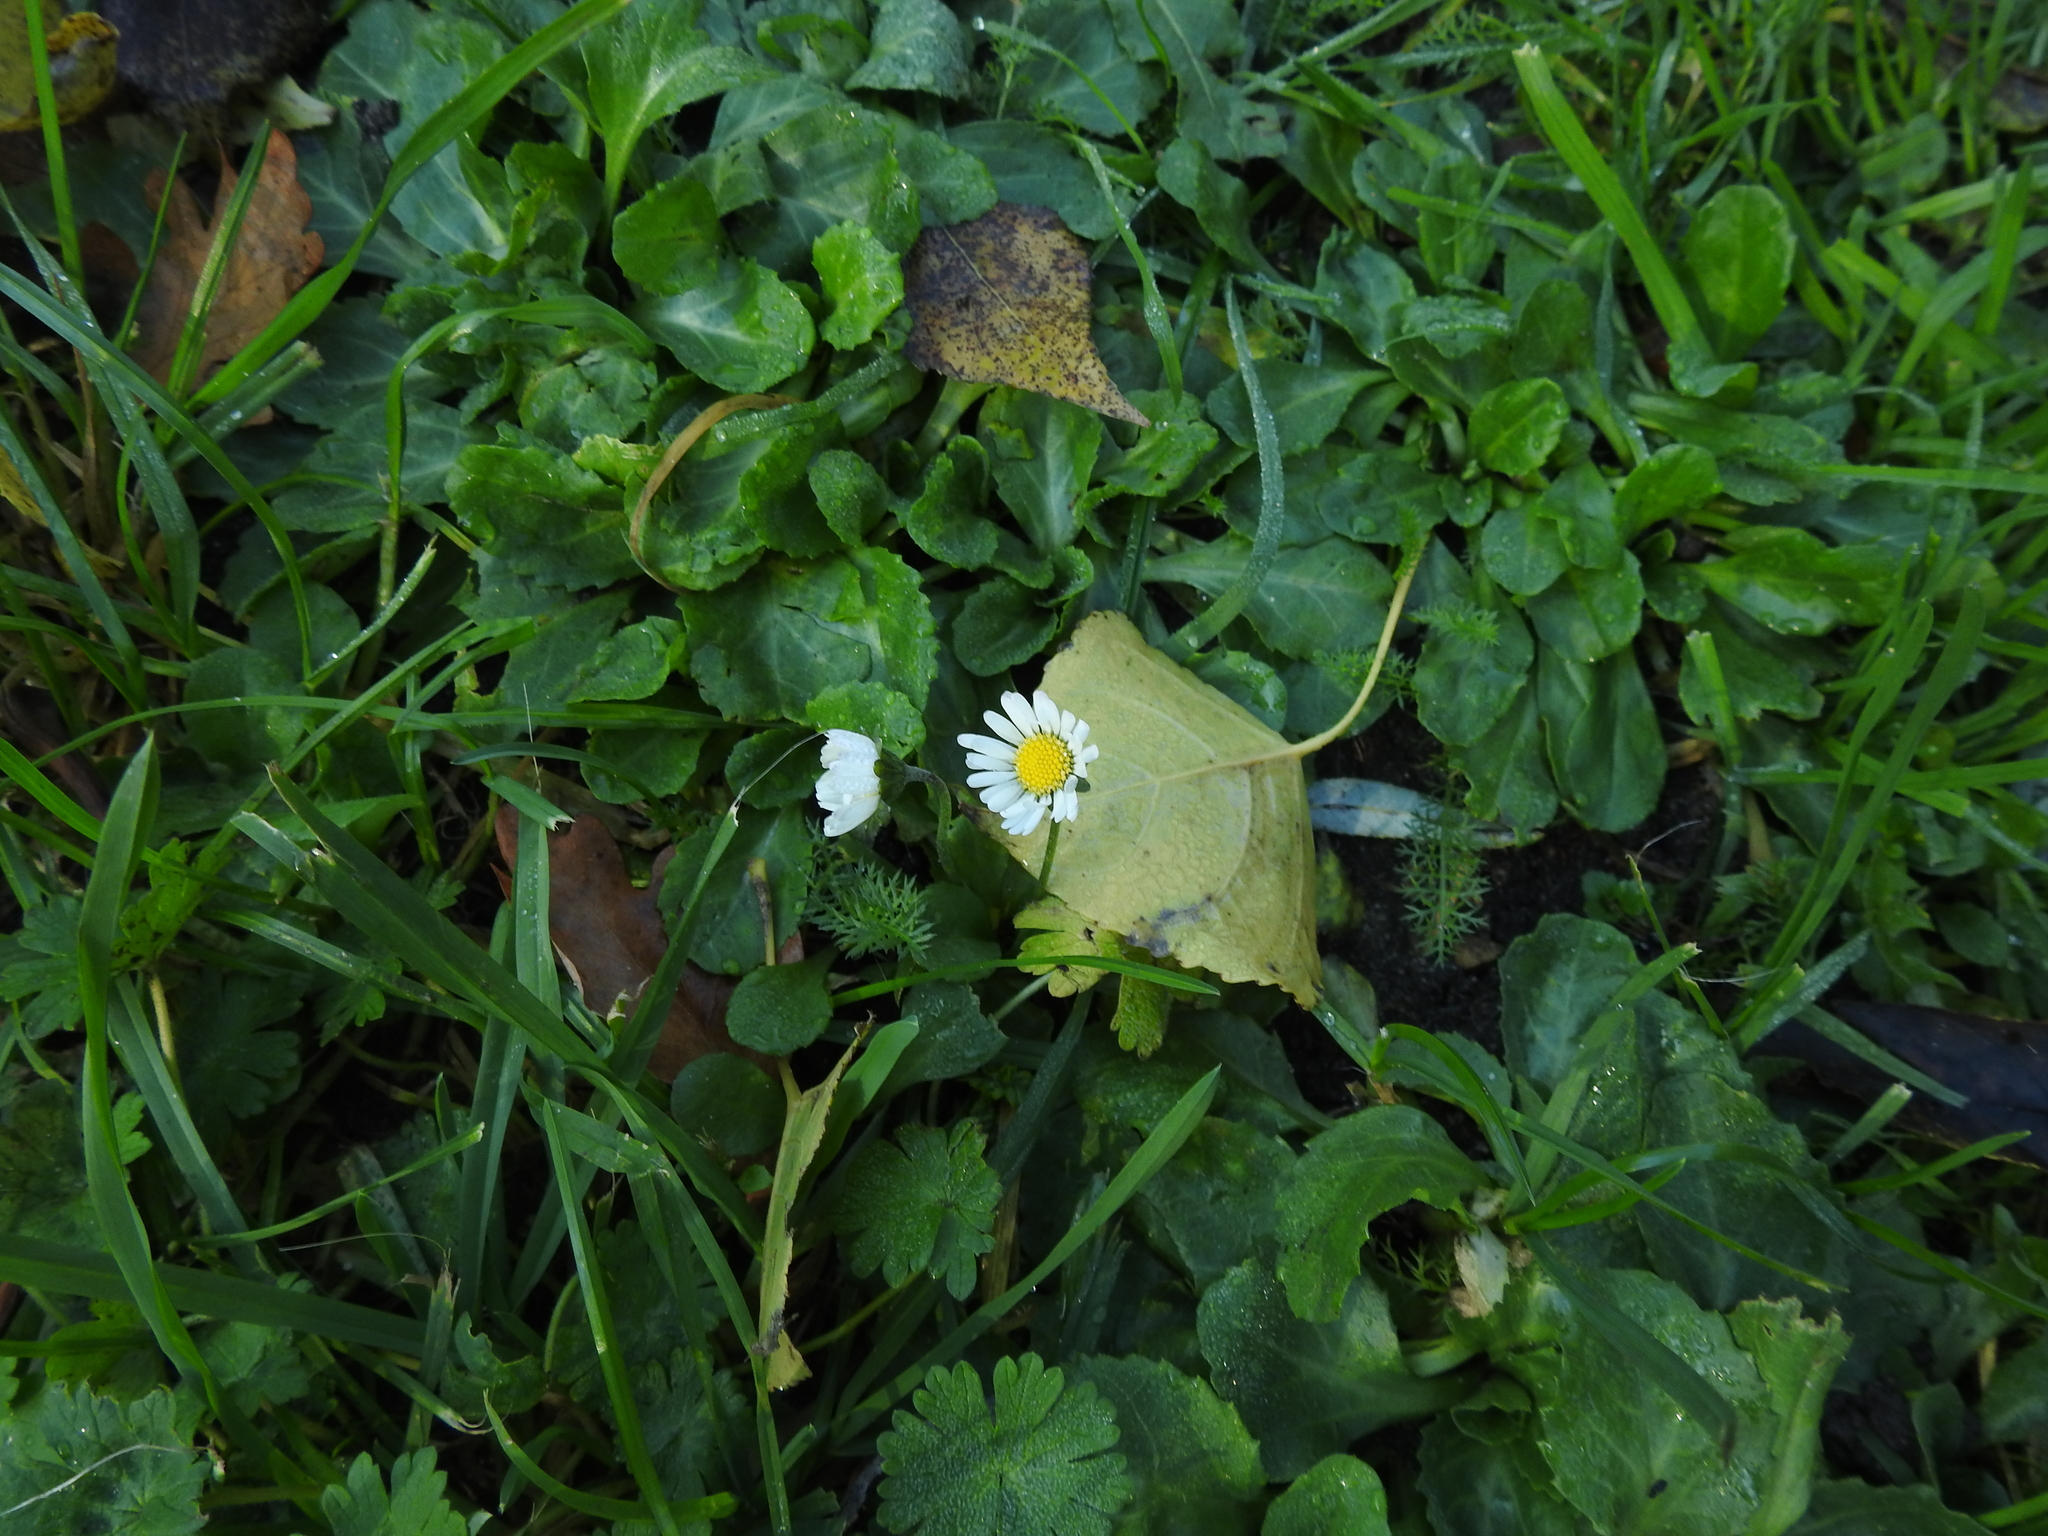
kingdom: Plantae
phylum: Tracheophyta
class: Magnoliopsida
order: Asterales
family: Asteraceae
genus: Bellis
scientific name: Bellis perennis
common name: Lawndaisy
